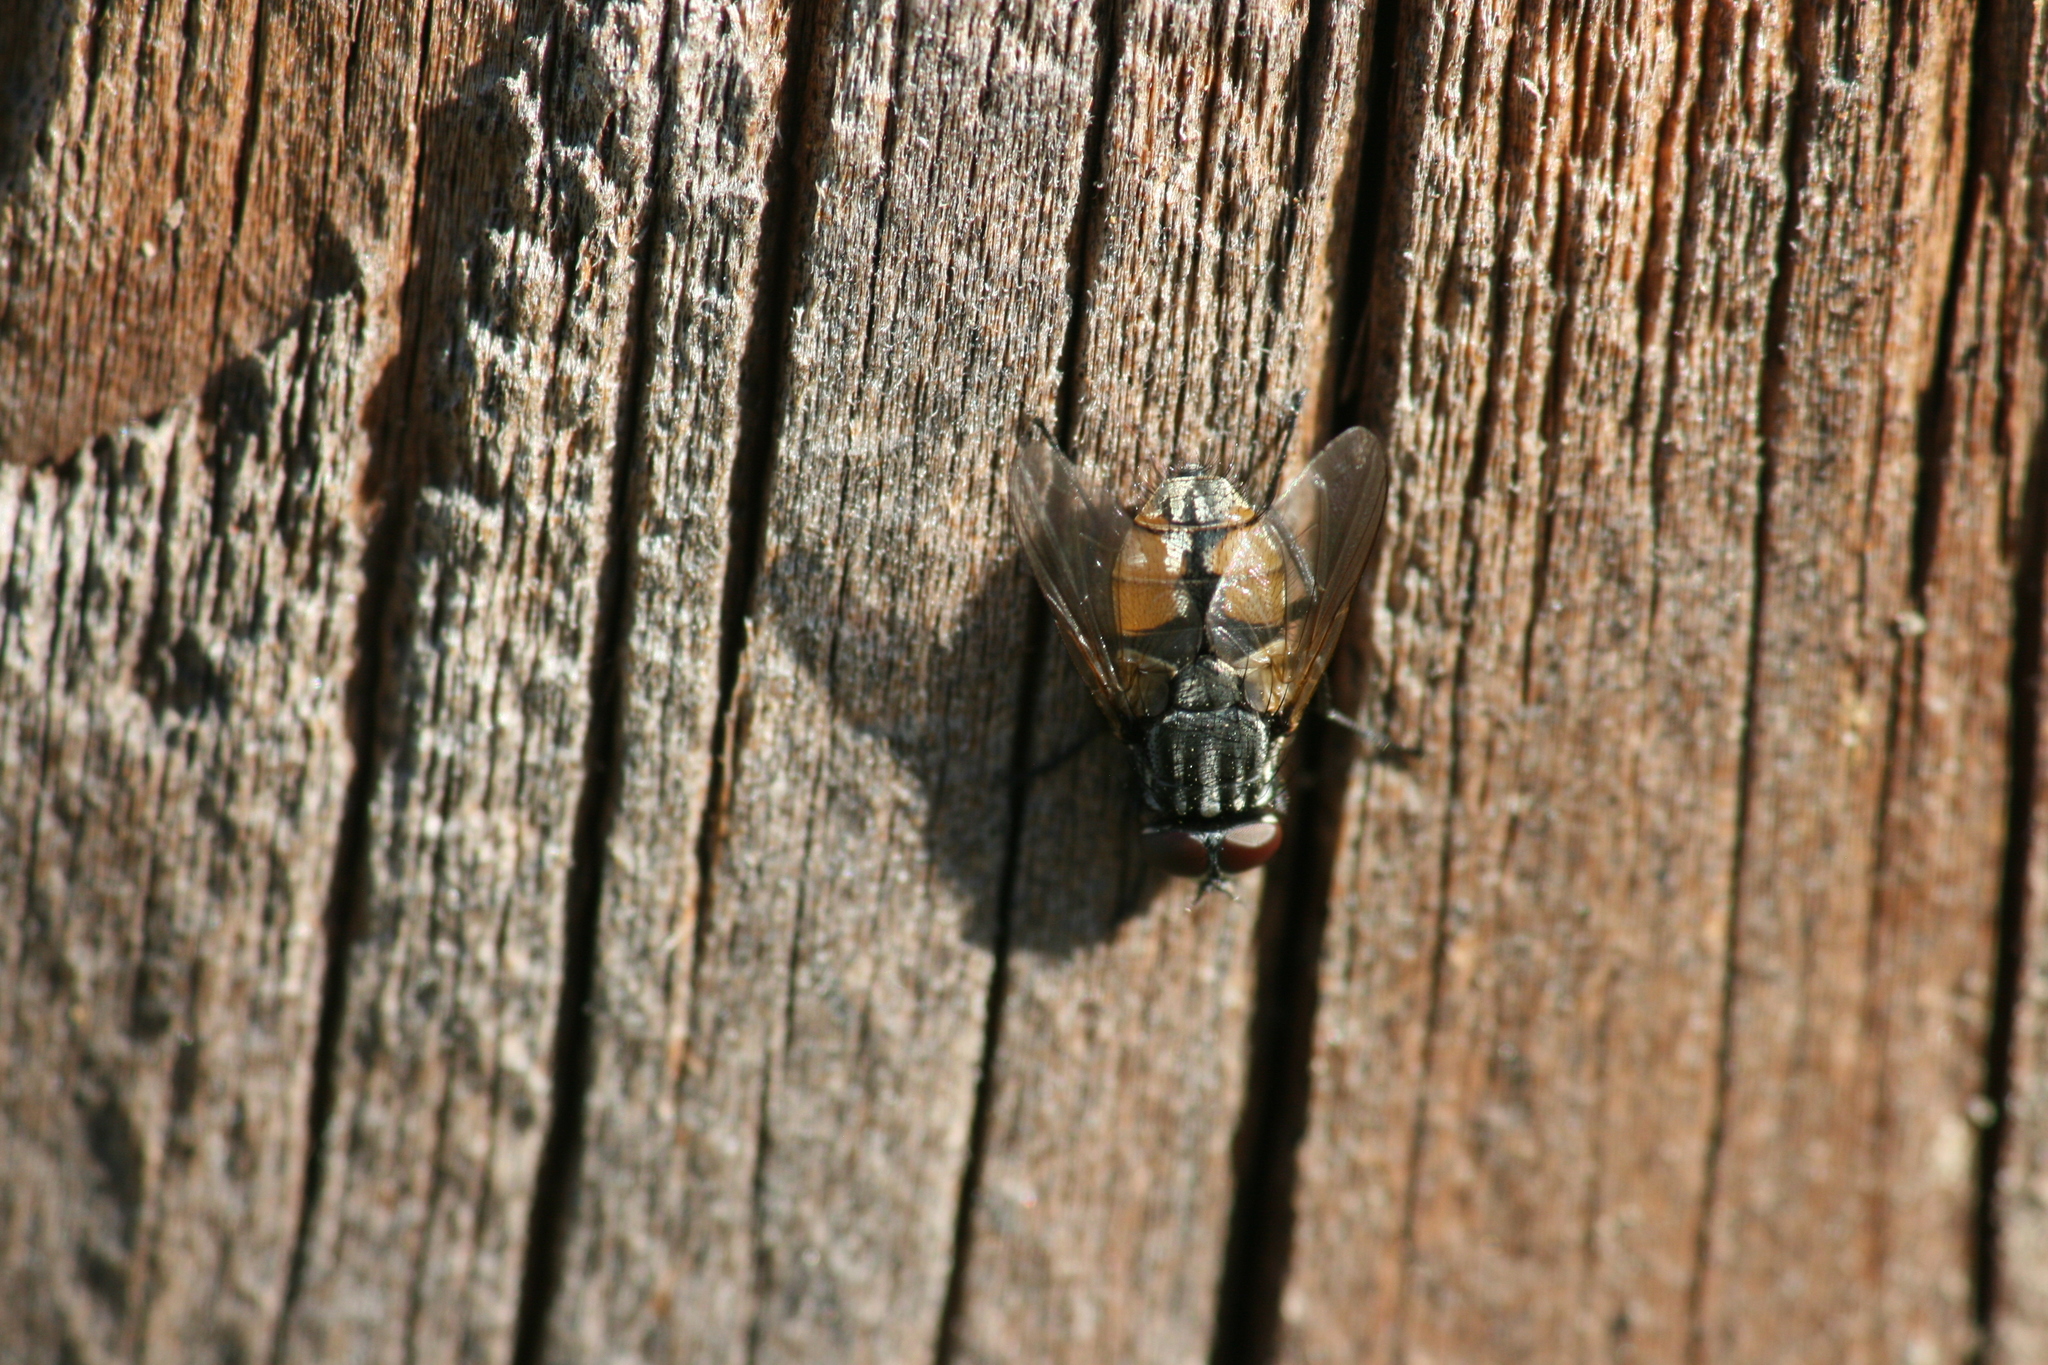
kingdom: Animalia
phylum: Arthropoda
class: Insecta
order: Diptera
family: Muscidae
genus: Musca
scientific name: Musca autumnalis
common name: Face fly
